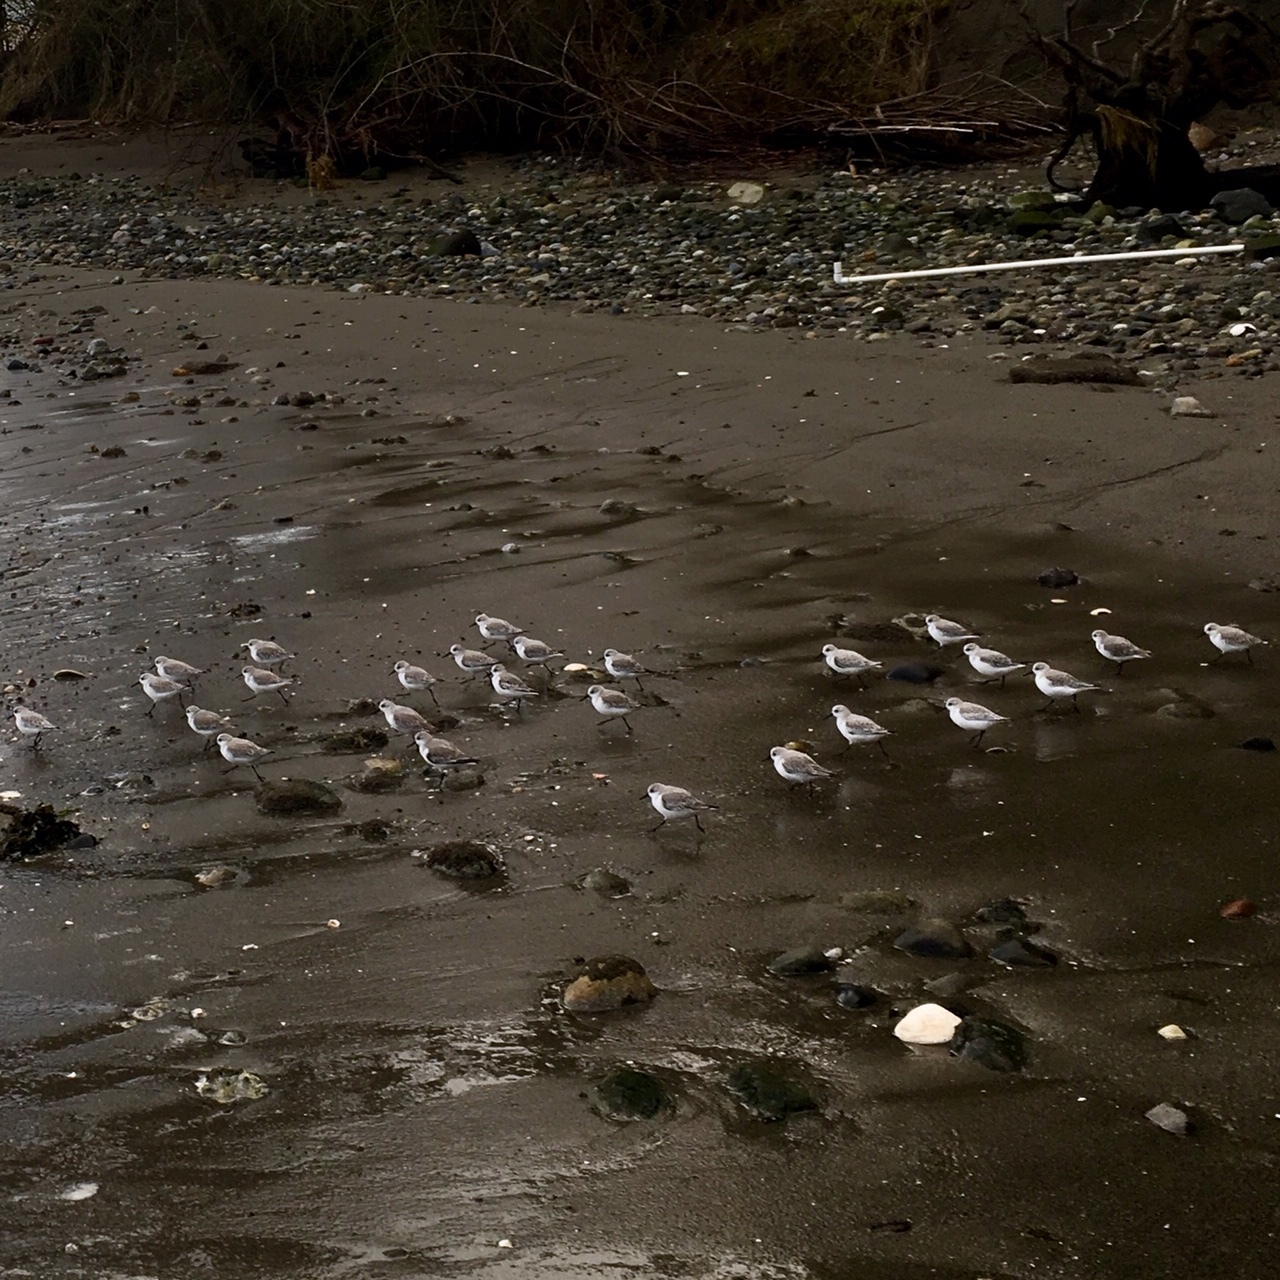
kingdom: Animalia
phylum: Chordata
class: Aves
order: Charadriiformes
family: Scolopacidae
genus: Calidris
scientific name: Calidris alba
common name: Sanderling
